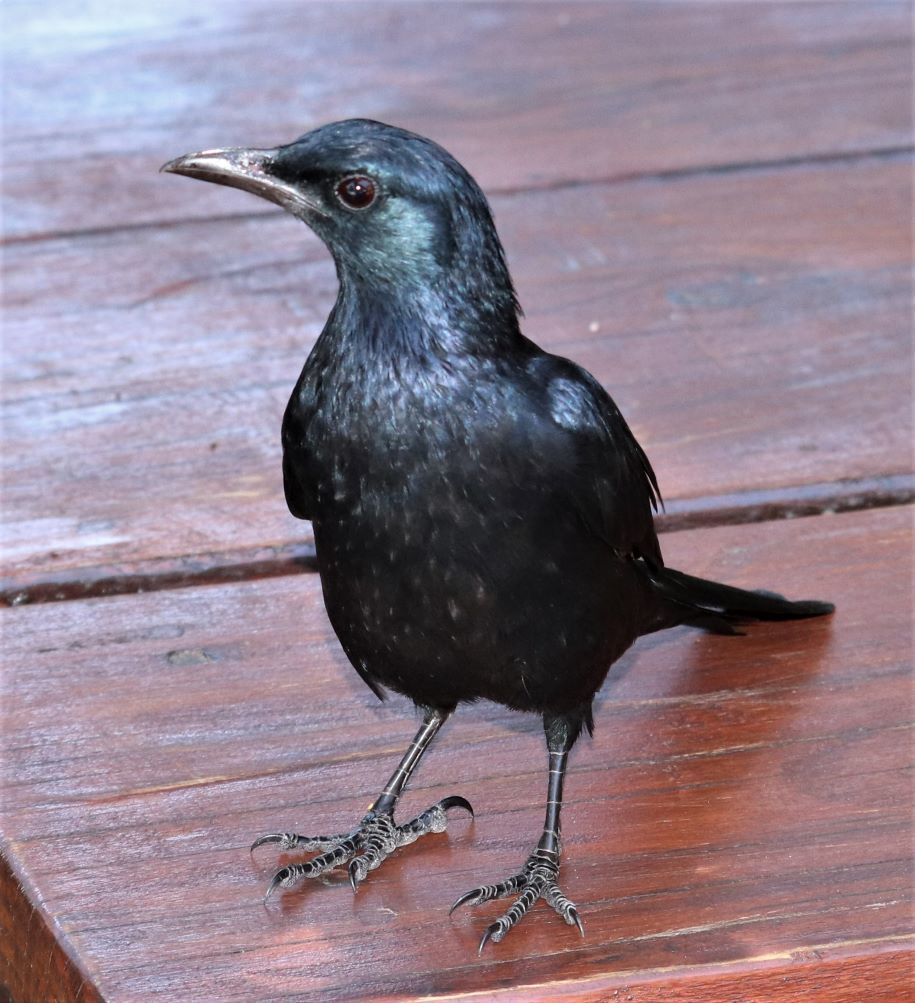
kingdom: Animalia
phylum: Chordata
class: Aves
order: Passeriformes
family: Sturnidae
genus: Onychognathus
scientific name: Onychognathus morio
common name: Red-winged starling
